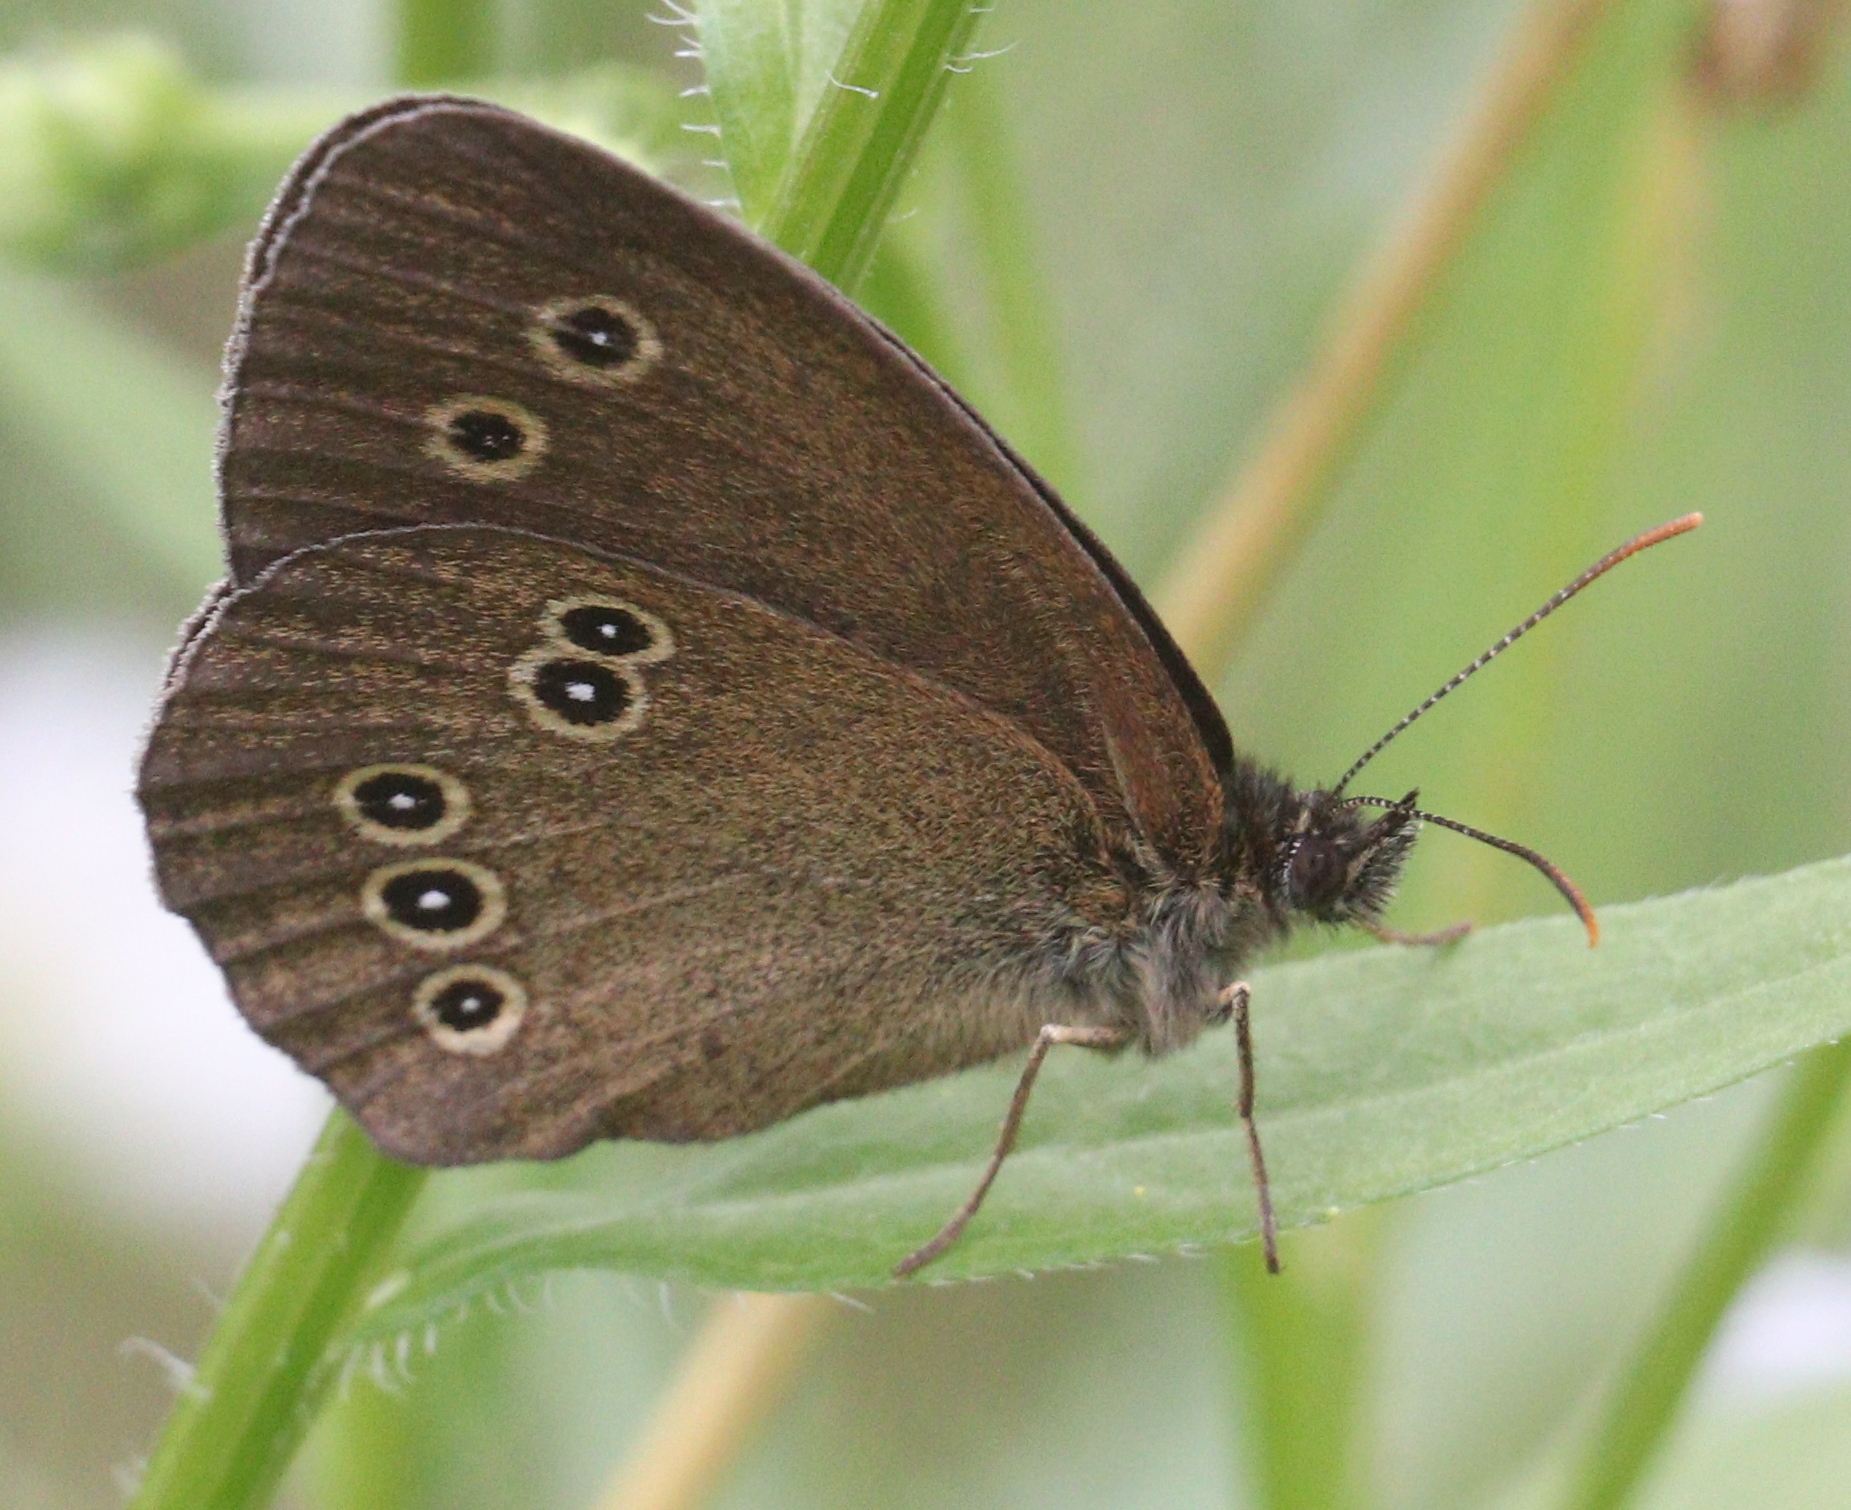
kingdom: Animalia
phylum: Arthropoda
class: Insecta
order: Lepidoptera
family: Nymphalidae
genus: Aphantopus
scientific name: Aphantopus hyperantus
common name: Ringlet
